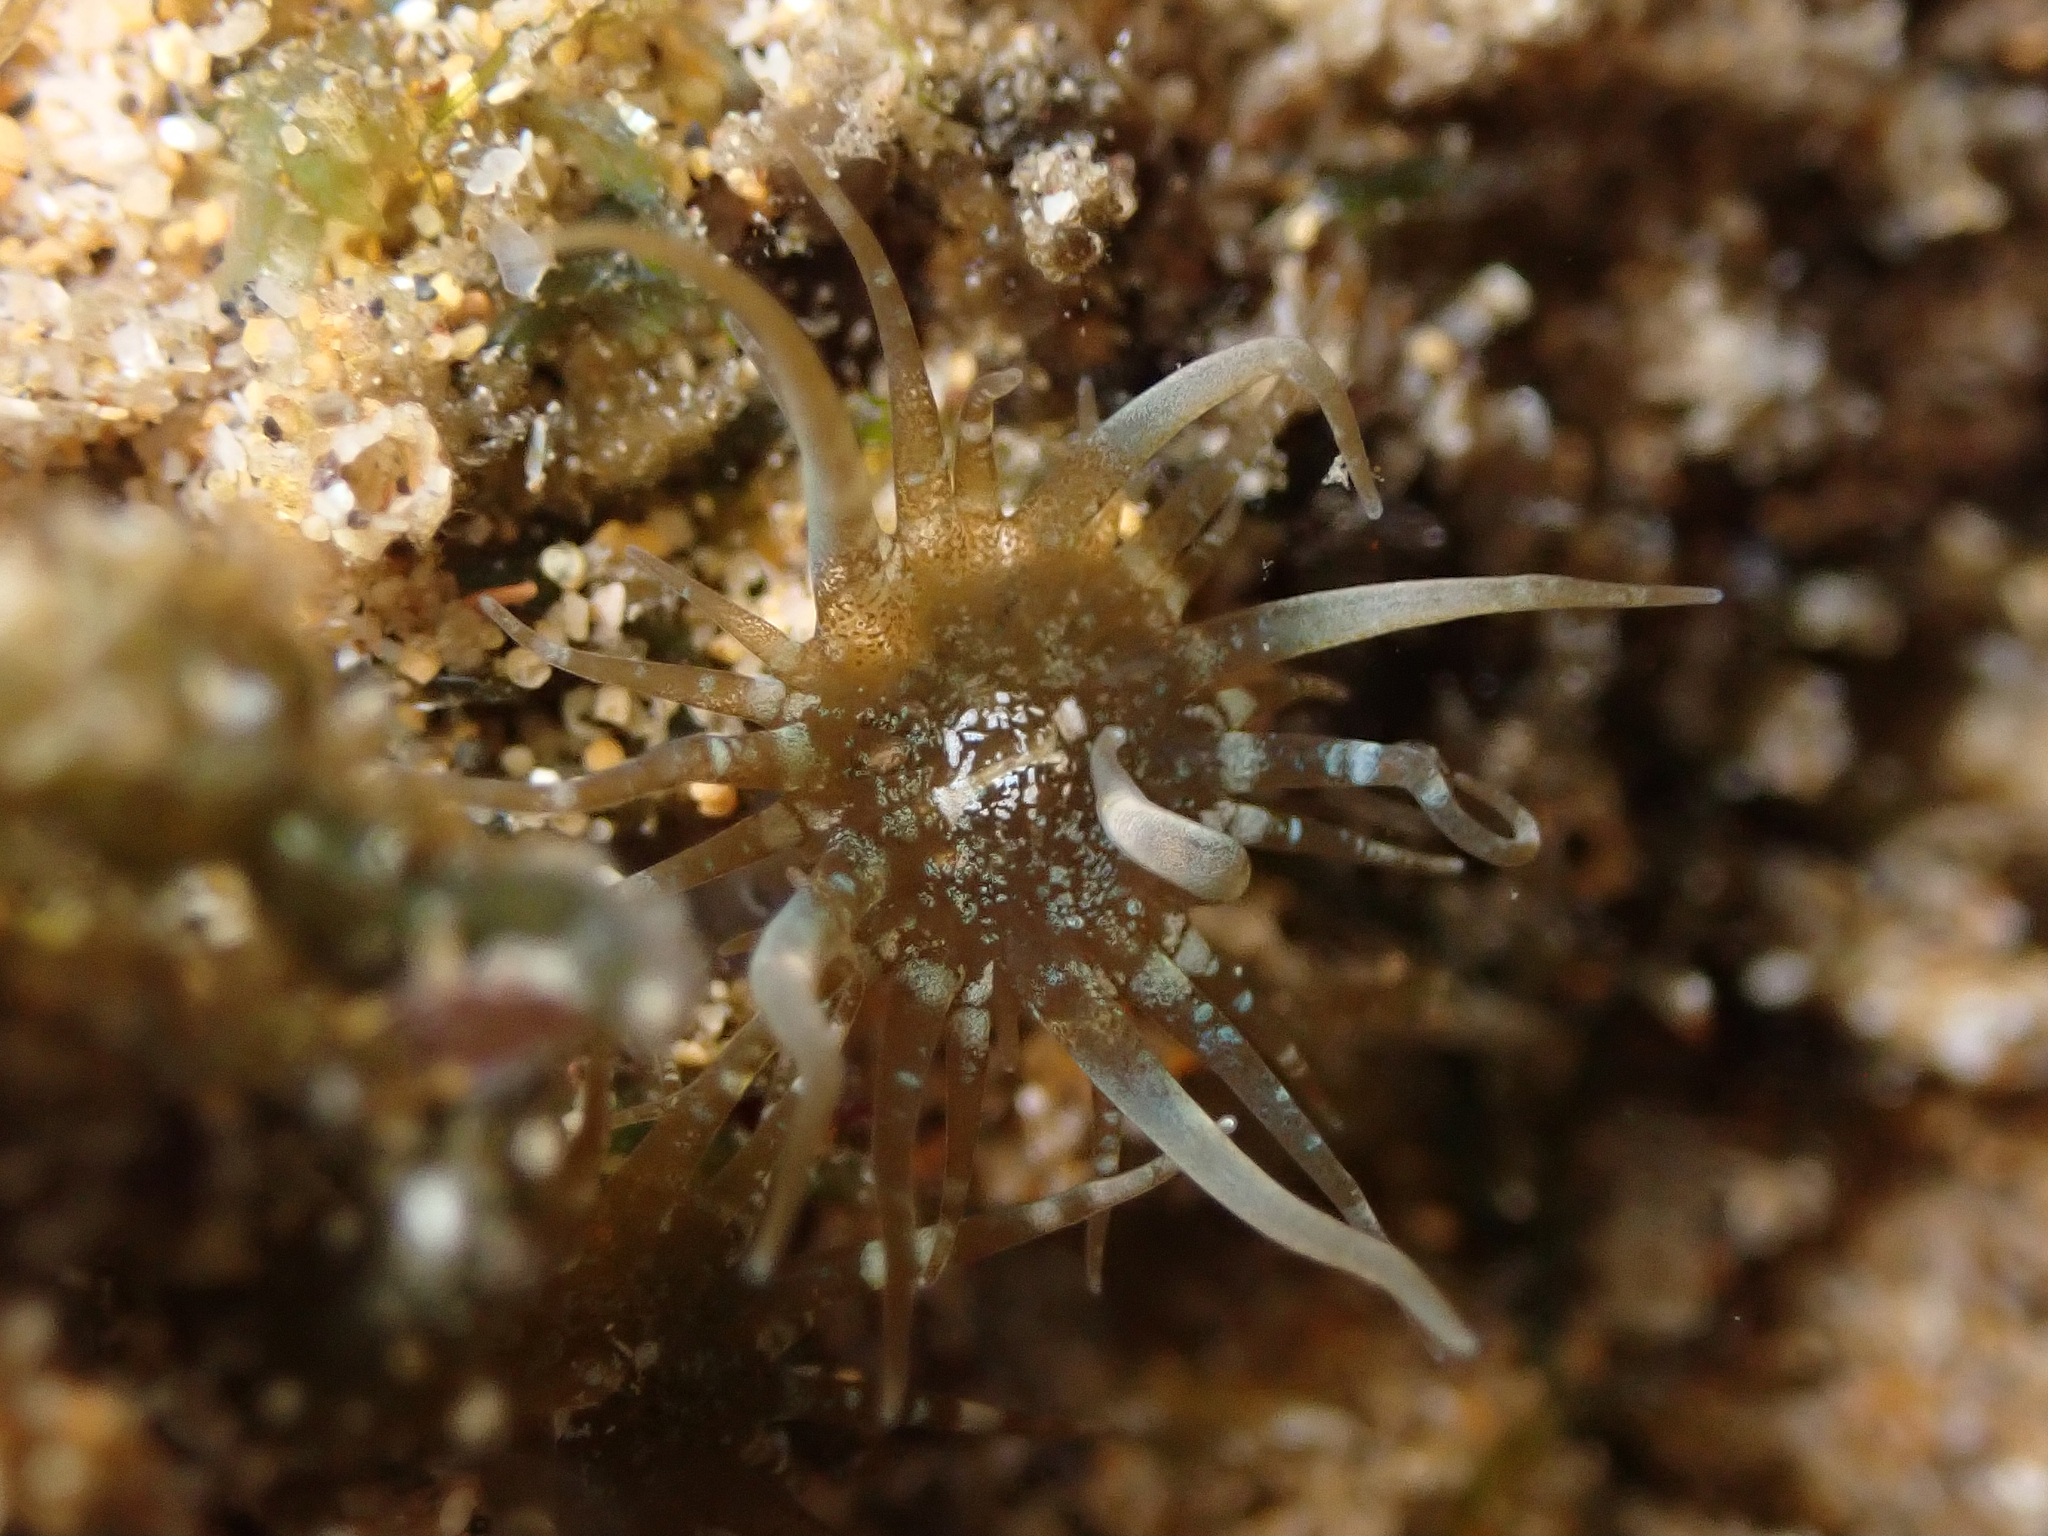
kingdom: Animalia
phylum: Cnidaria
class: Anthozoa
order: Actiniaria
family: Aiptasiidae
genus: Exaiptasia
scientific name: Exaiptasia diaphana
